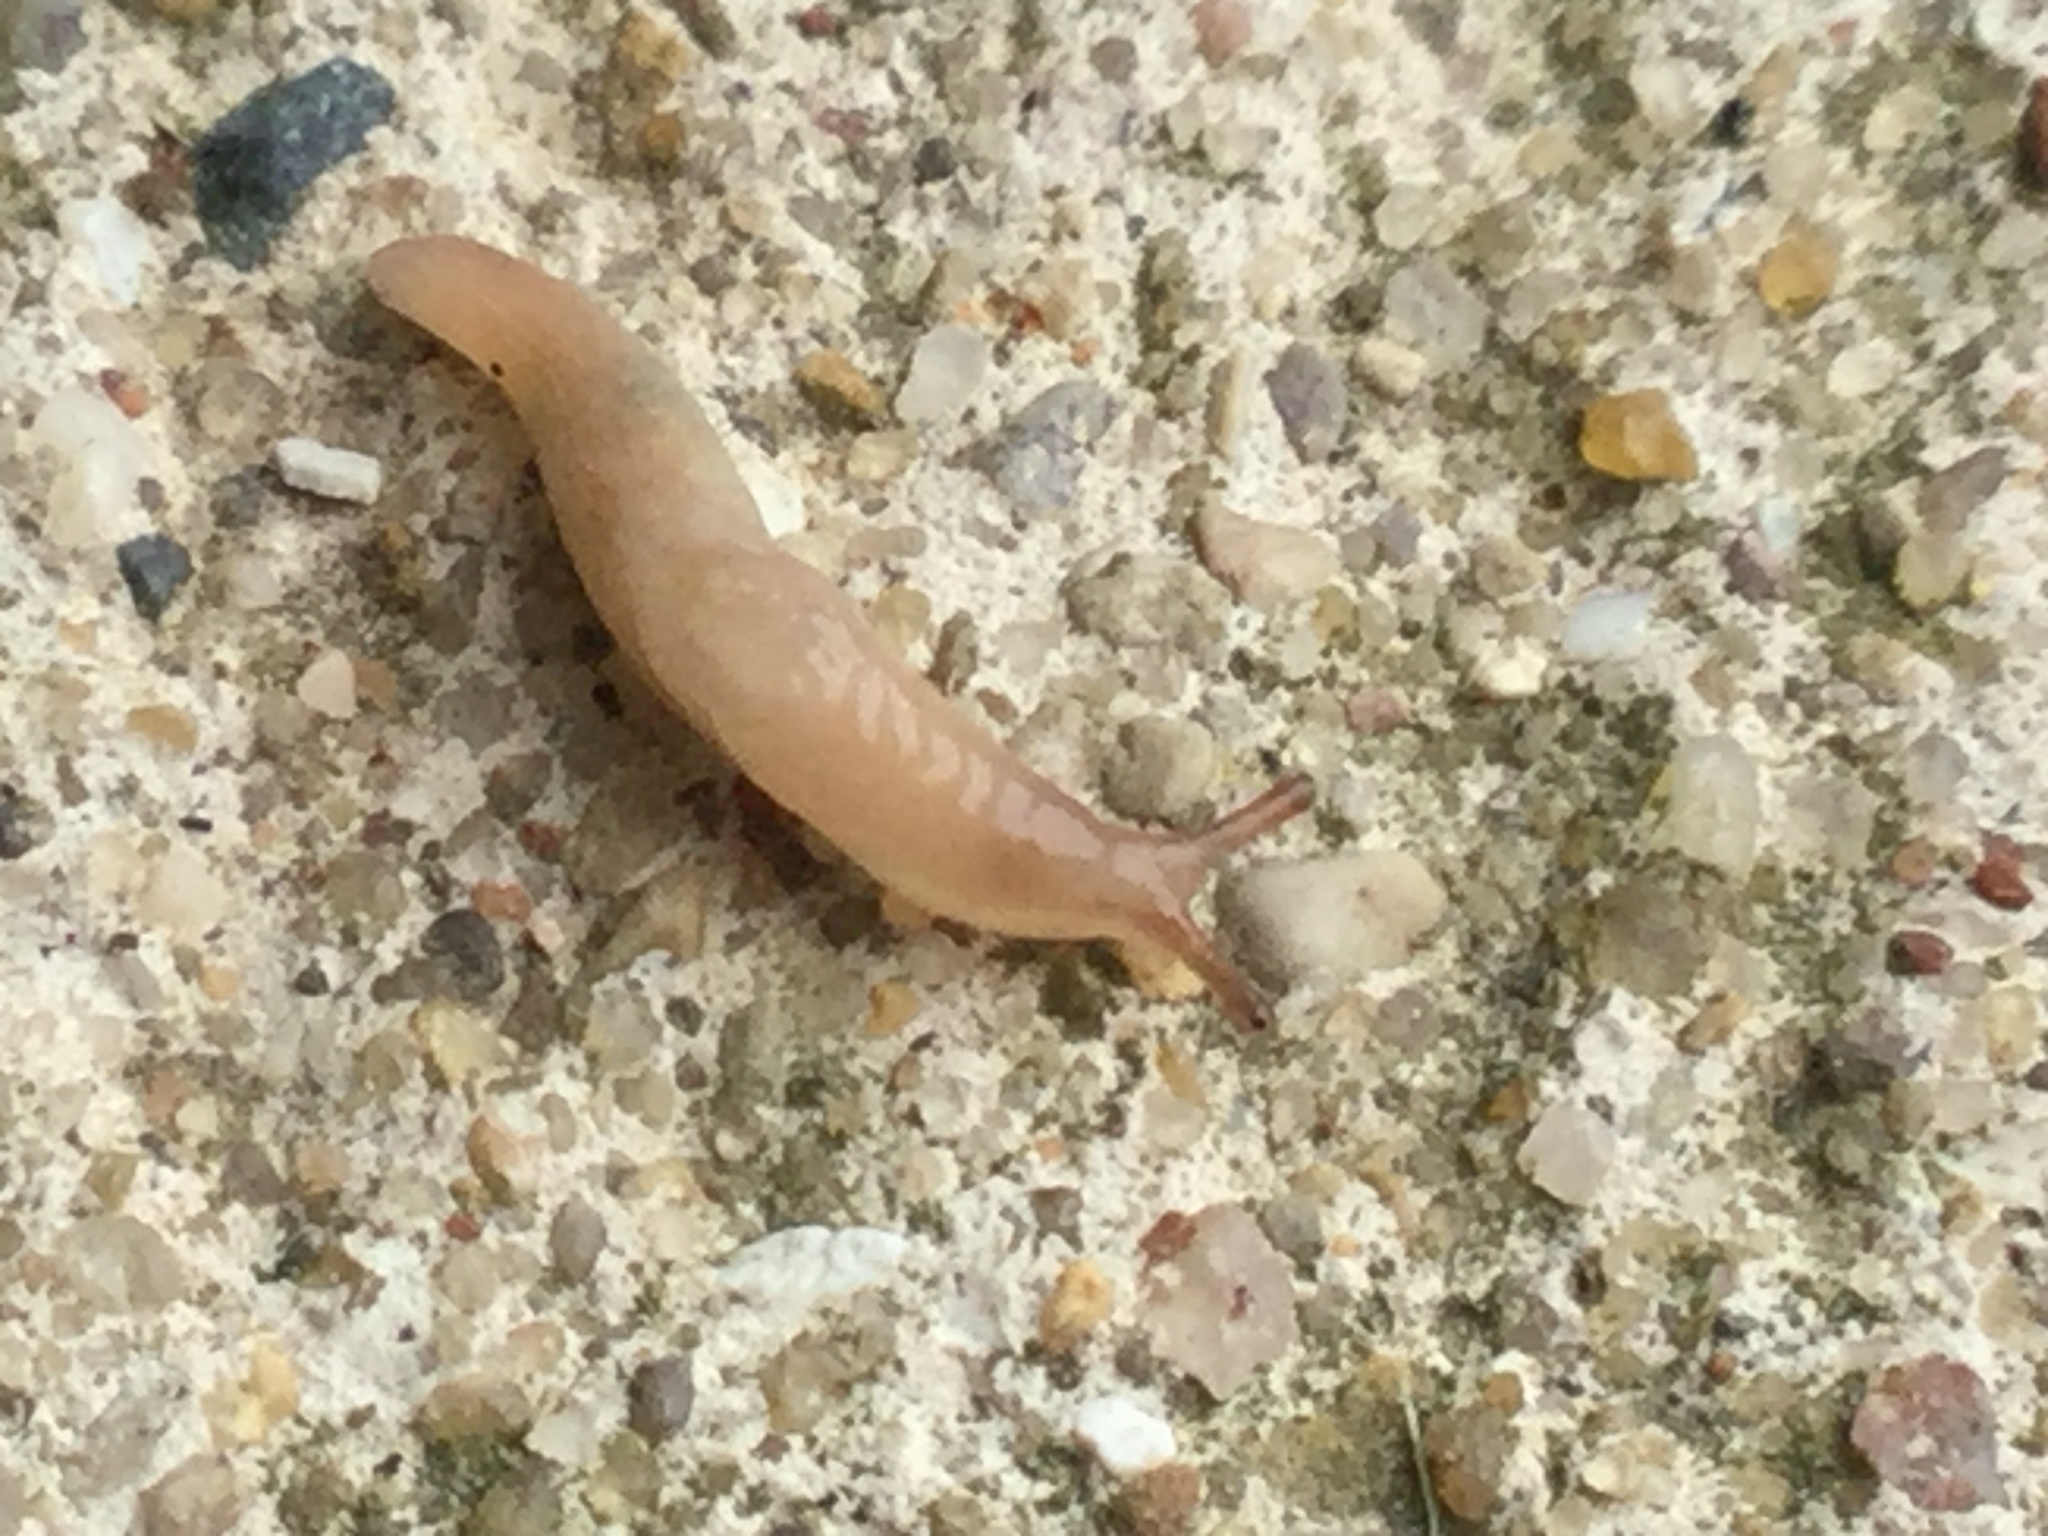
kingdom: Animalia
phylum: Mollusca
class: Gastropoda
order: Stylommatophora
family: Agriolimacidae
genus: Deroceras
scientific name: Deroceras reticulatum
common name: Gray field slug
